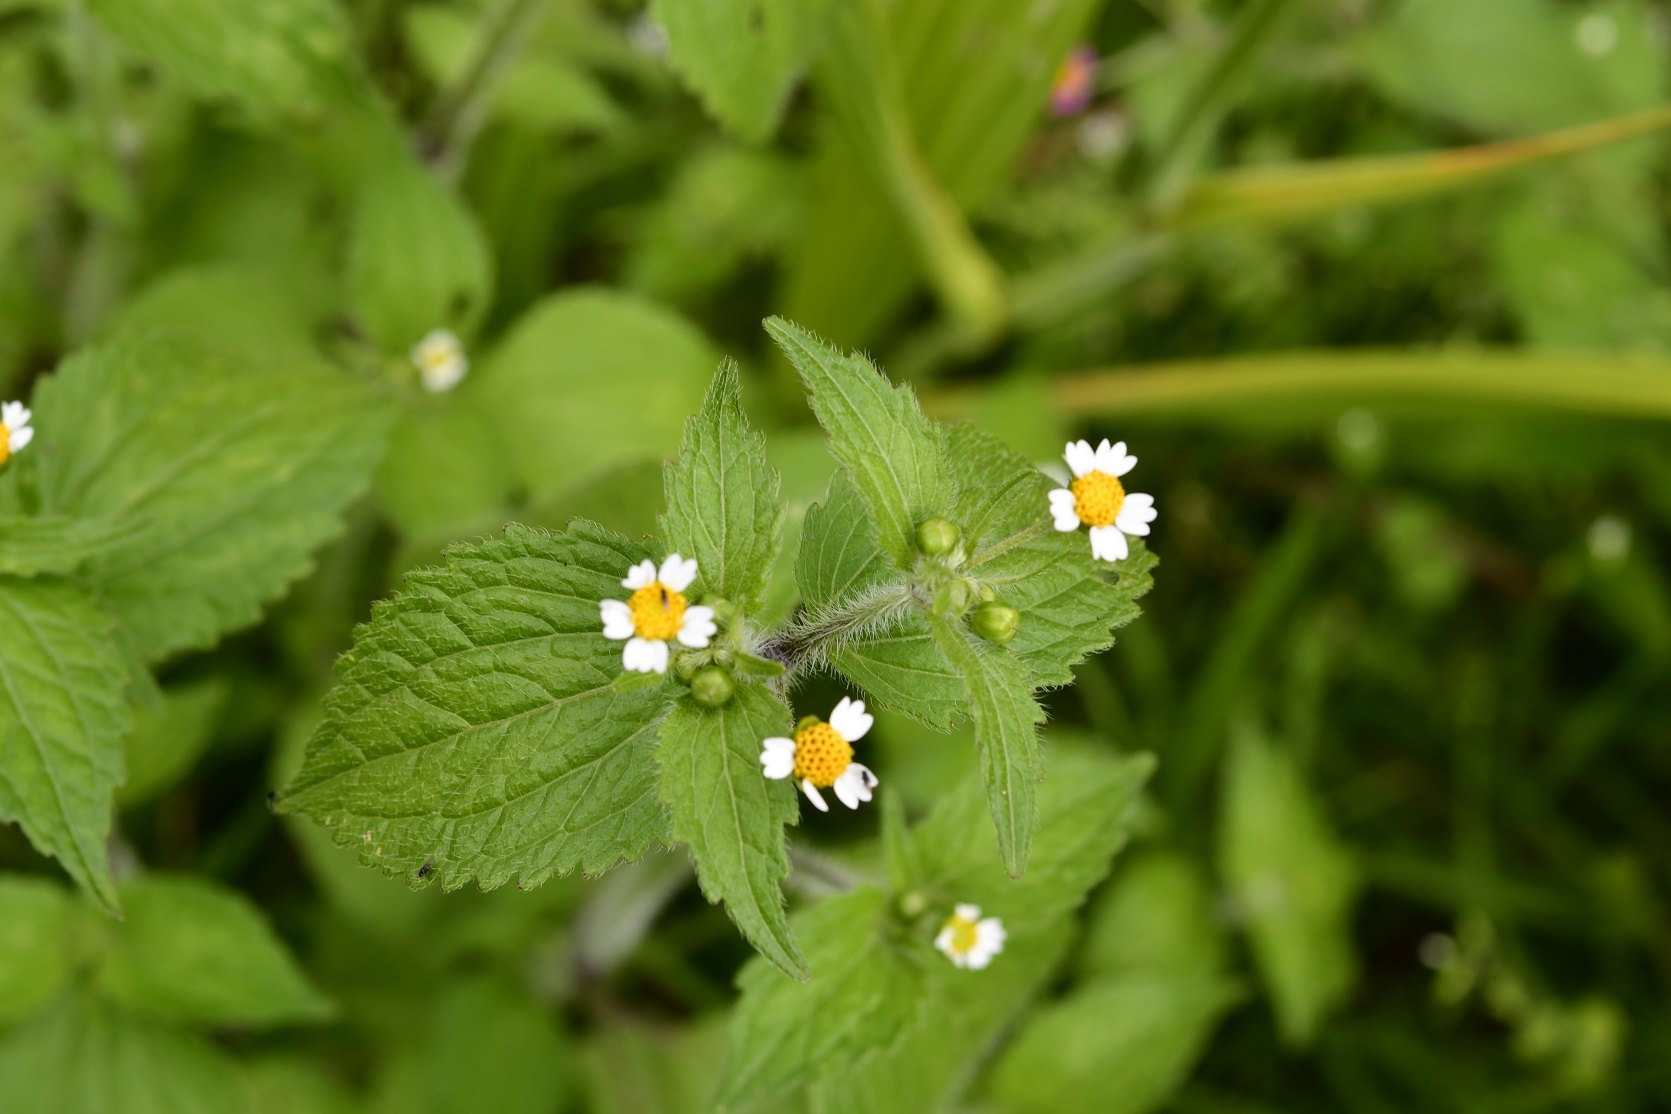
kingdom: Plantae
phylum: Tracheophyta
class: Magnoliopsida
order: Asterales
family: Asteraceae
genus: Galinsoga
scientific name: Galinsoga quadriradiata
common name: Shaggy soldier
